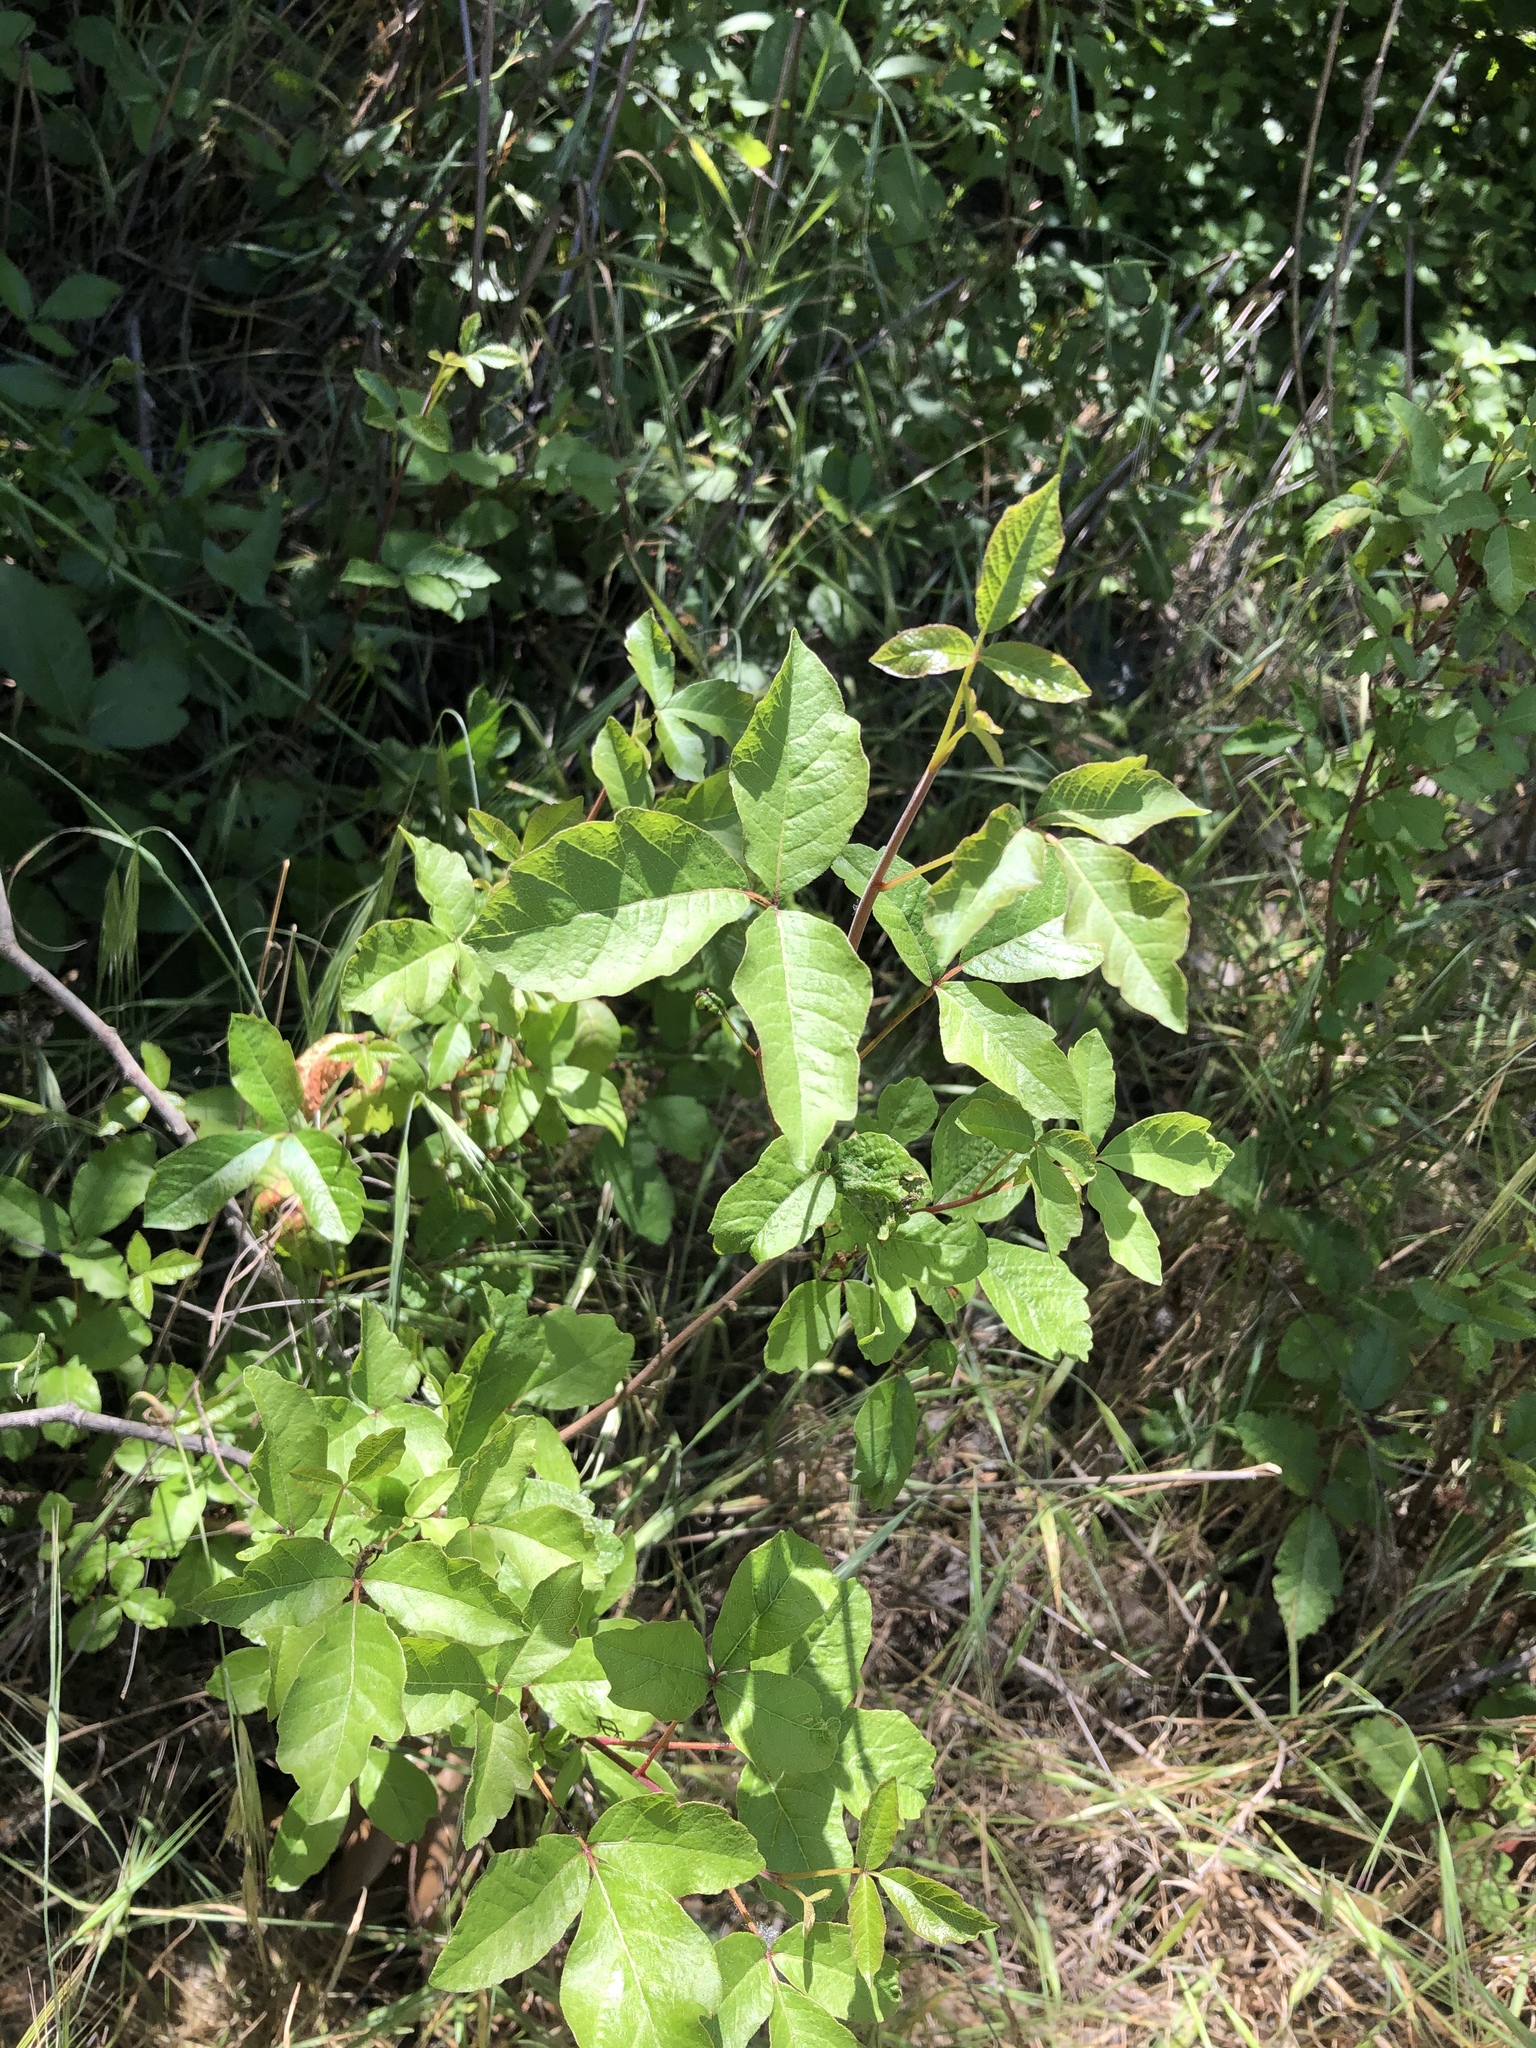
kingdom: Plantae
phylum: Tracheophyta
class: Magnoliopsida
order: Sapindales
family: Anacardiaceae
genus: Toxicodendron
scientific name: Toxicodendron diversilobum
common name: Pacific poison-oak
